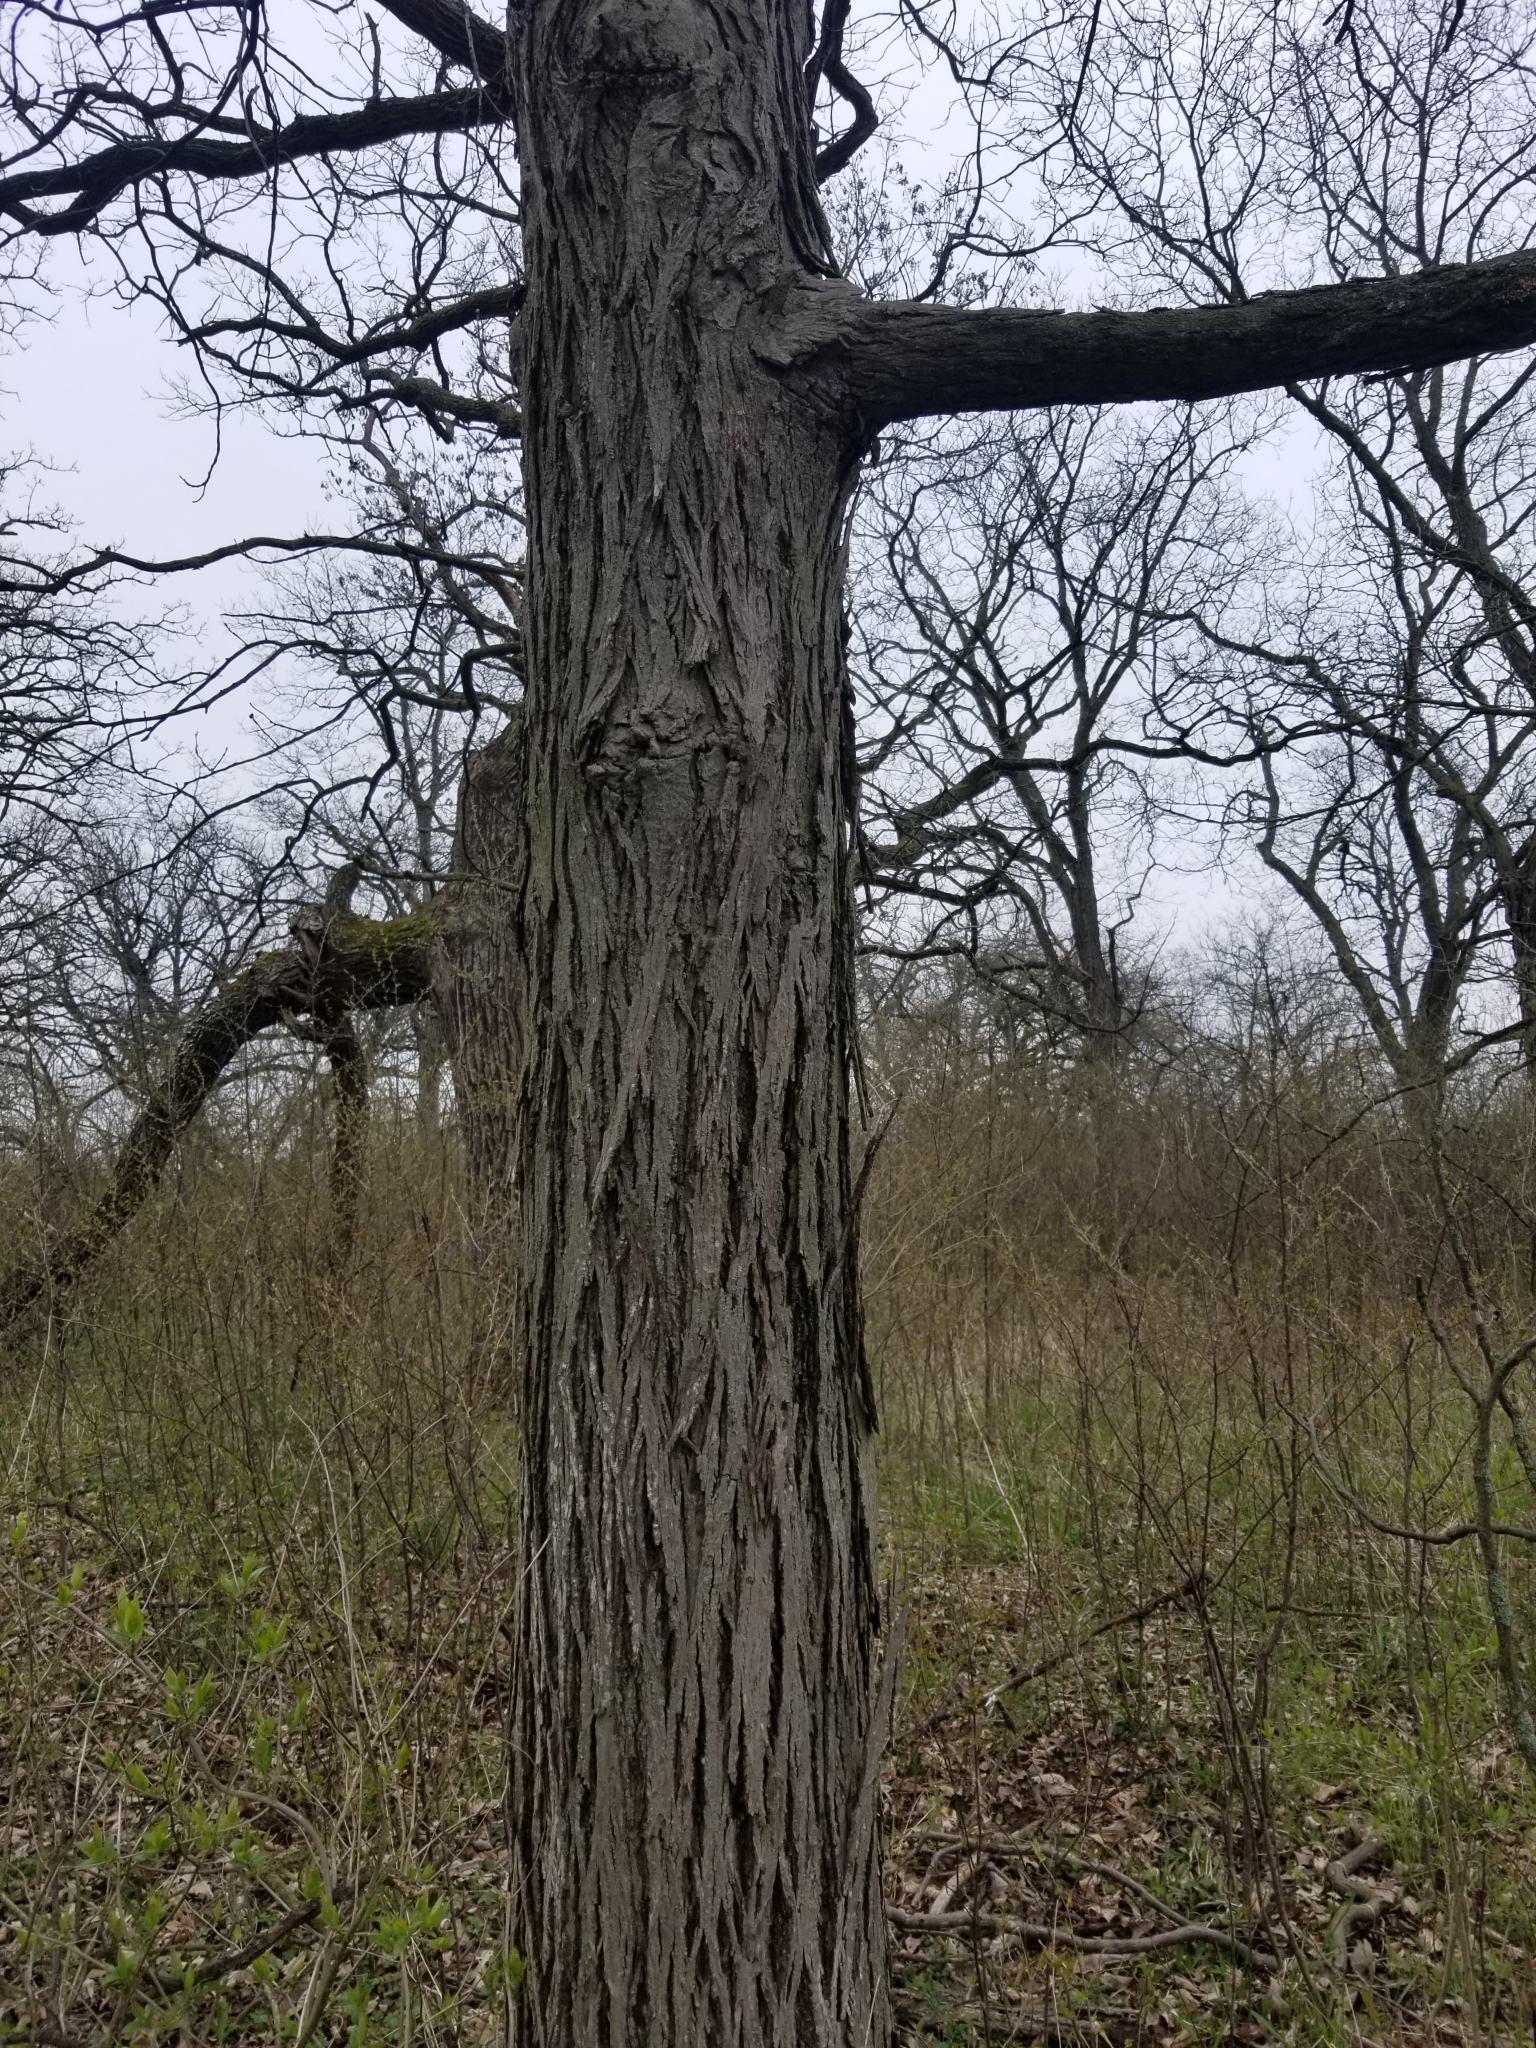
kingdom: Plantae
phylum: Tracheophyta
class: Magnoliopsida
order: Fagales
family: Juglandaceae
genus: Carya
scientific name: Carya ovata
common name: Shagbark hickory
